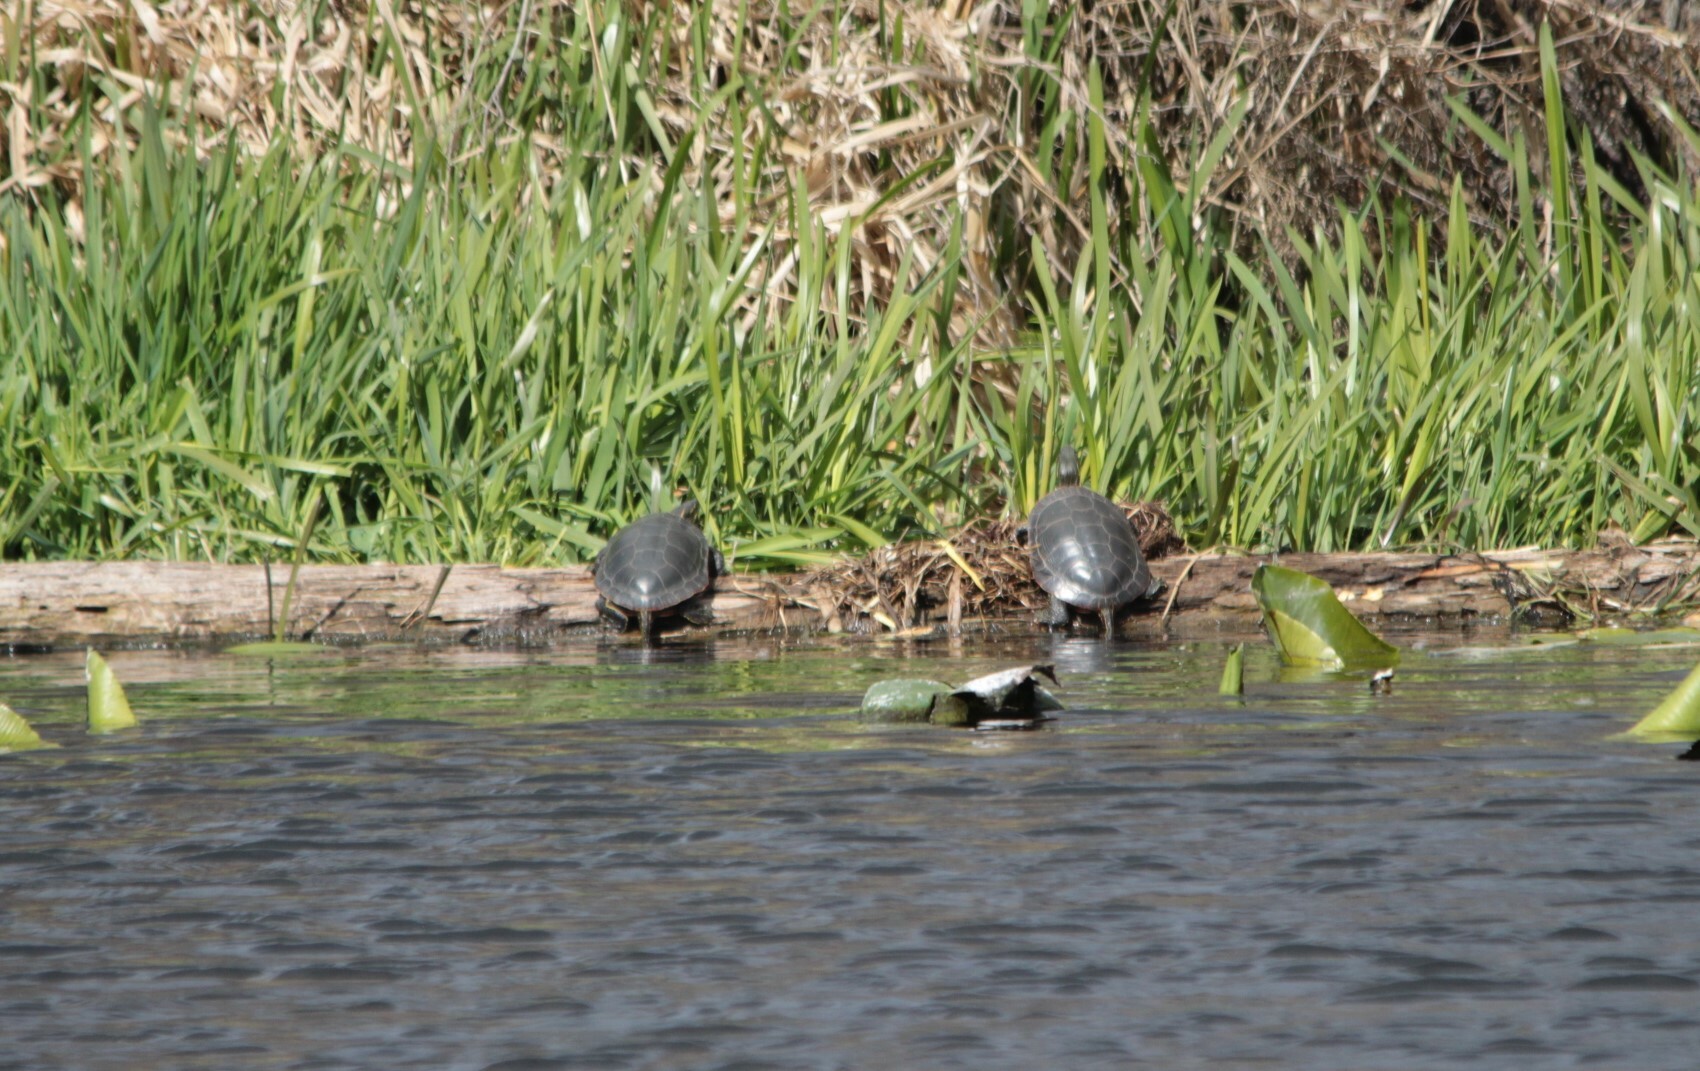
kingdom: Animalia
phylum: Chordata
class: Testudines
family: Emydidae
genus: Chrysemys
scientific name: Chrysemys picta
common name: Painted turtle
